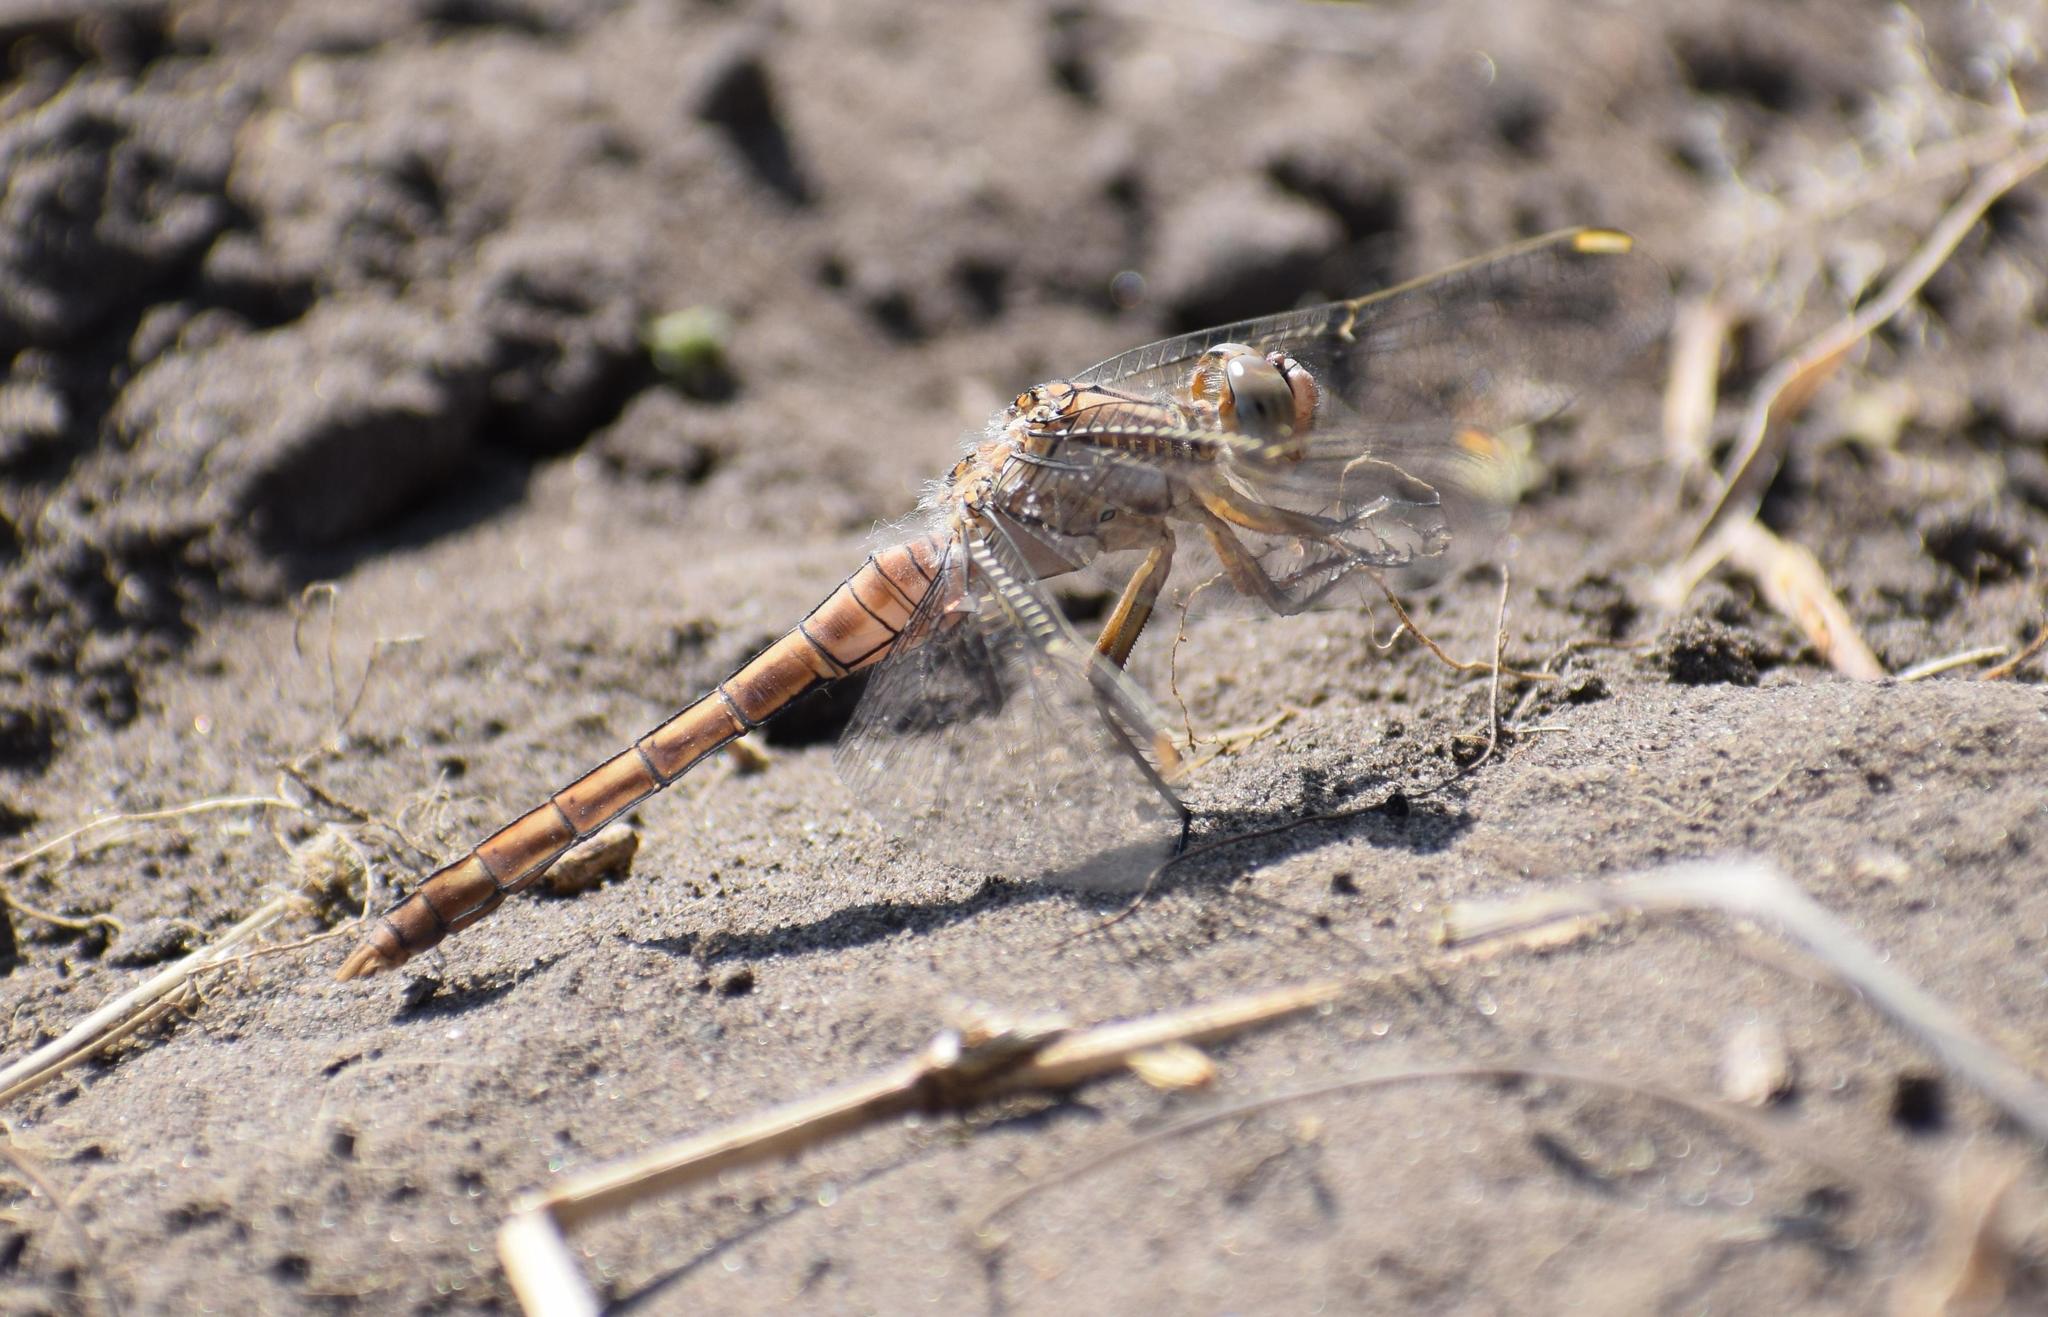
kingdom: Animalia
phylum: Arthropoda
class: Insecta
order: Odonata
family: Libellulidae
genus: Orthetrum
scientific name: Orthetrum brunneum
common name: Southern skimmer
